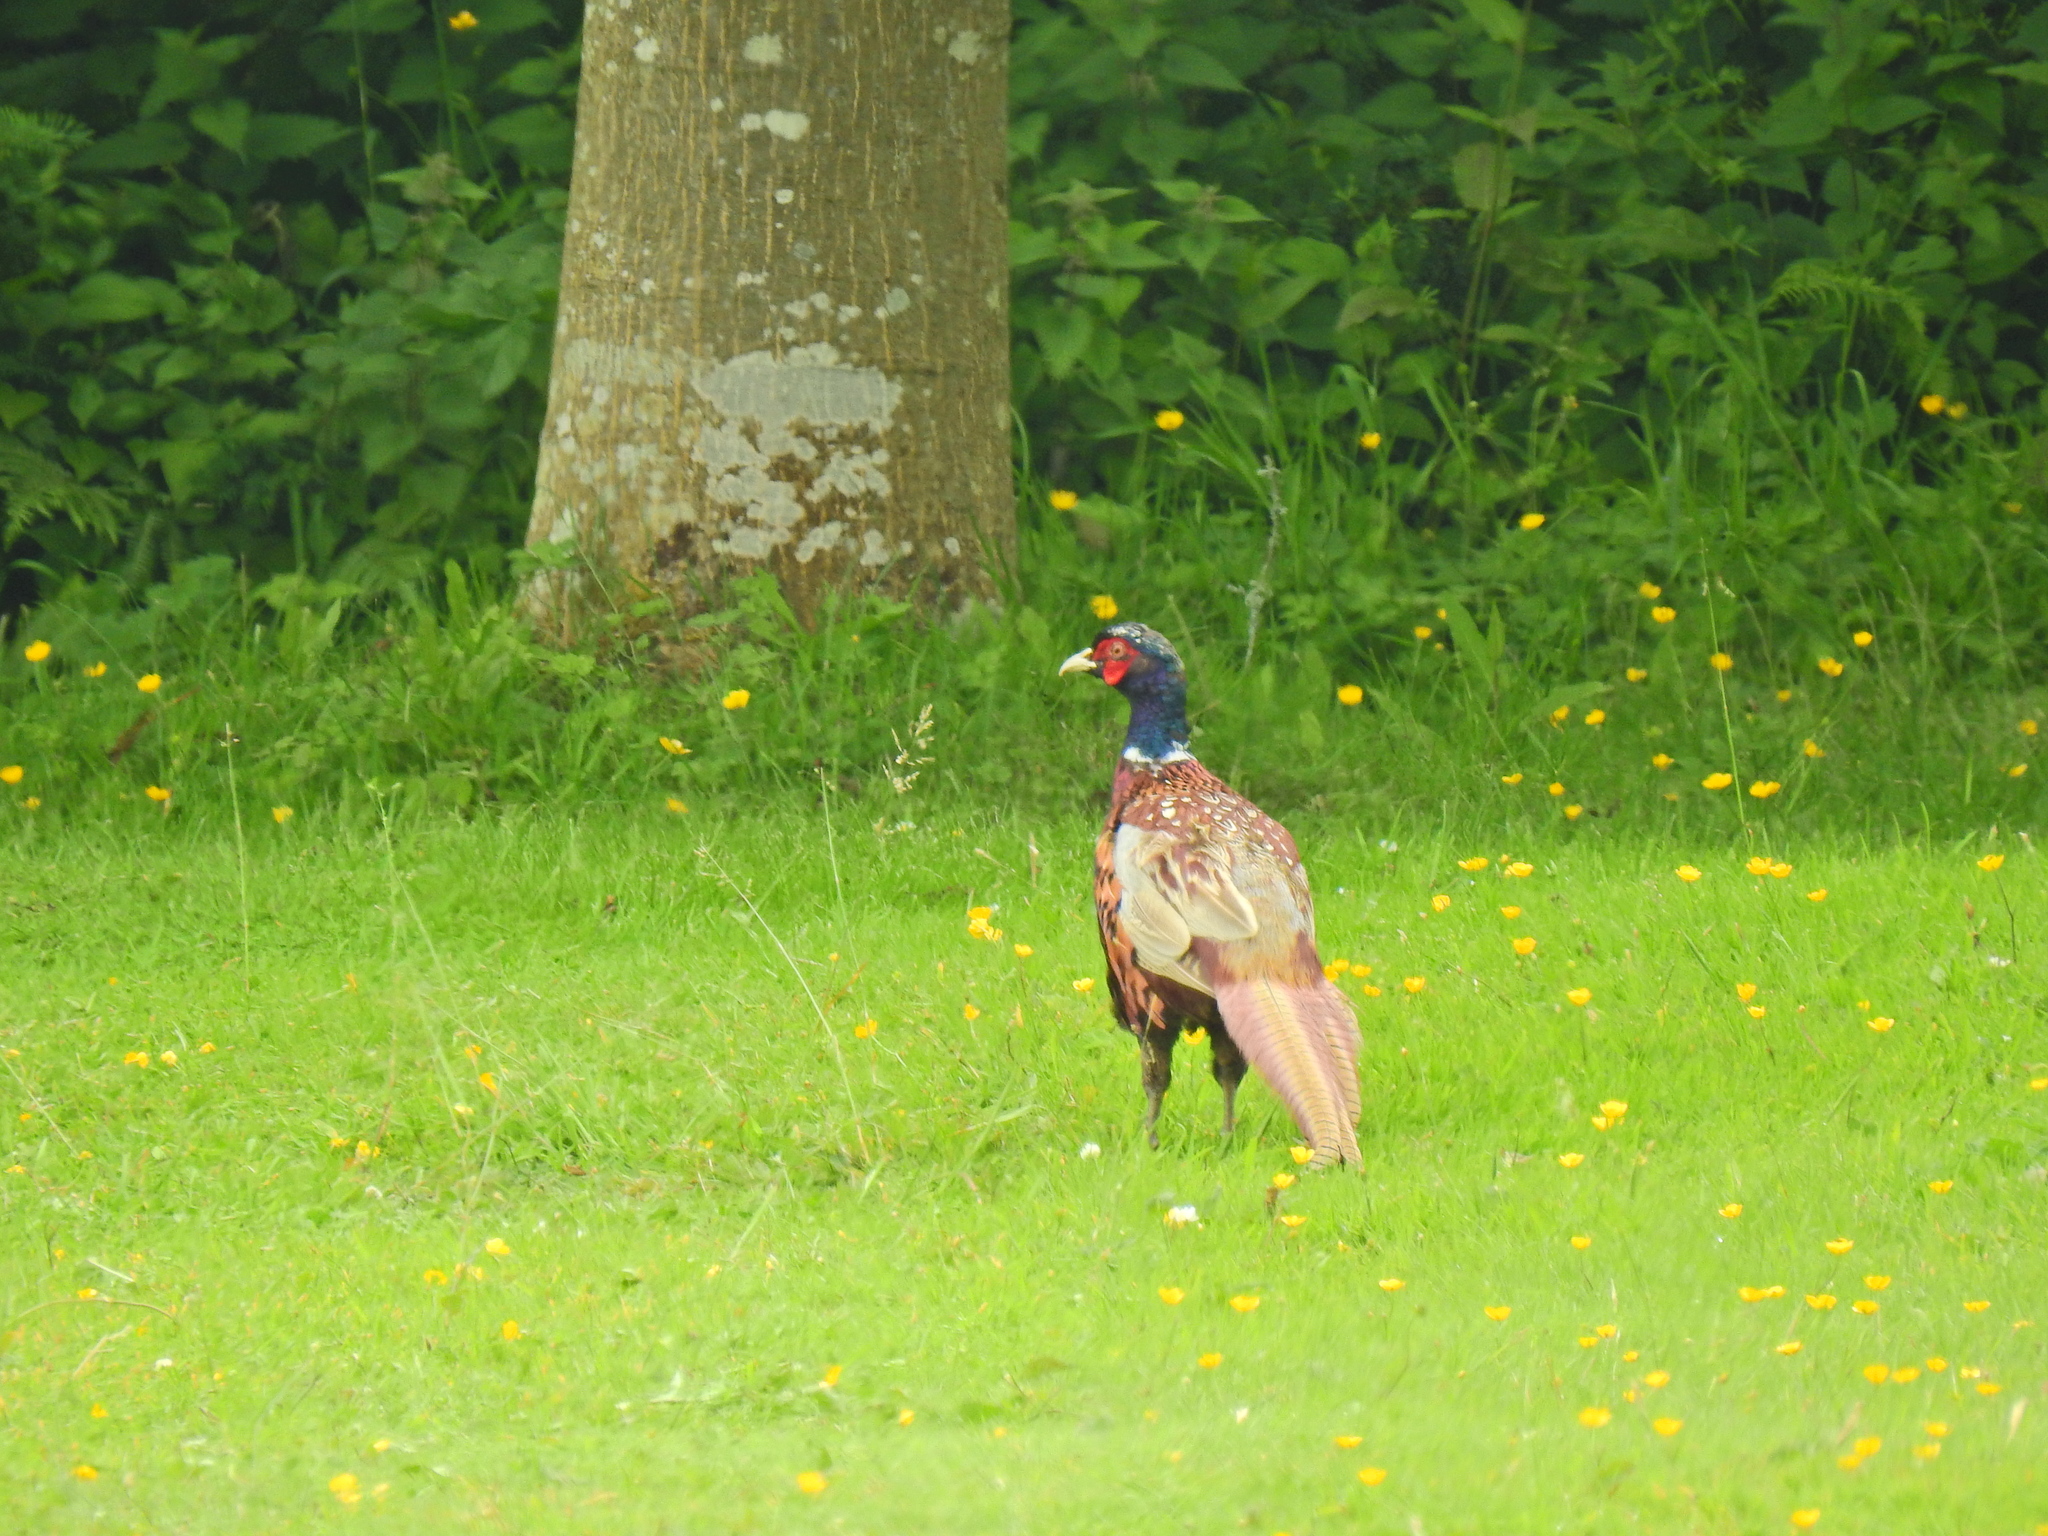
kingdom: Animalia
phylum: Chordata
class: Aves
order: Galliformes
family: Phasianidae
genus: Phasianus
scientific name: Phasianus colchicus
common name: Common pheasant
